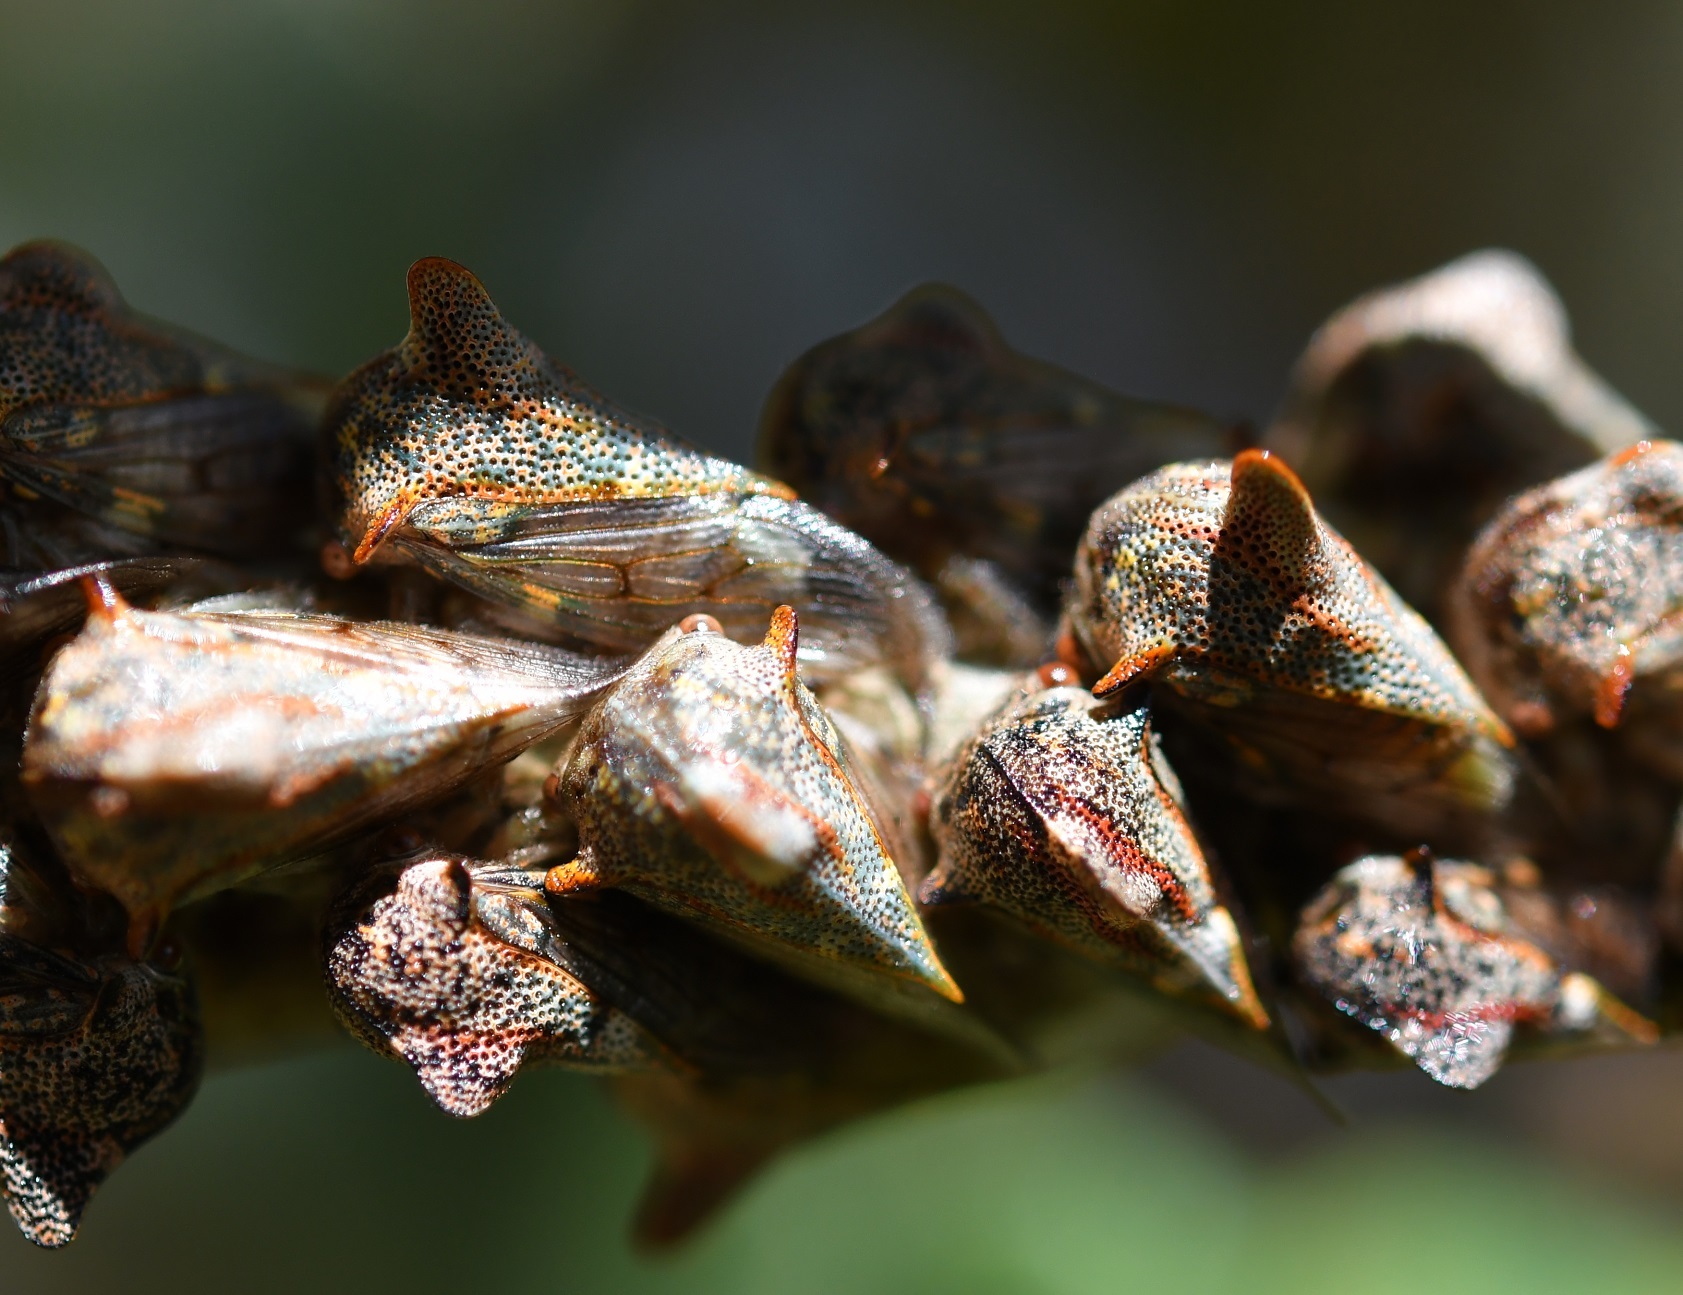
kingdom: Animalia
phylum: Arthropoda
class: Insecta
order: Hemiptera
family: Membracidae
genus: Platycotis
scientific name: Platycotis tuberculata
